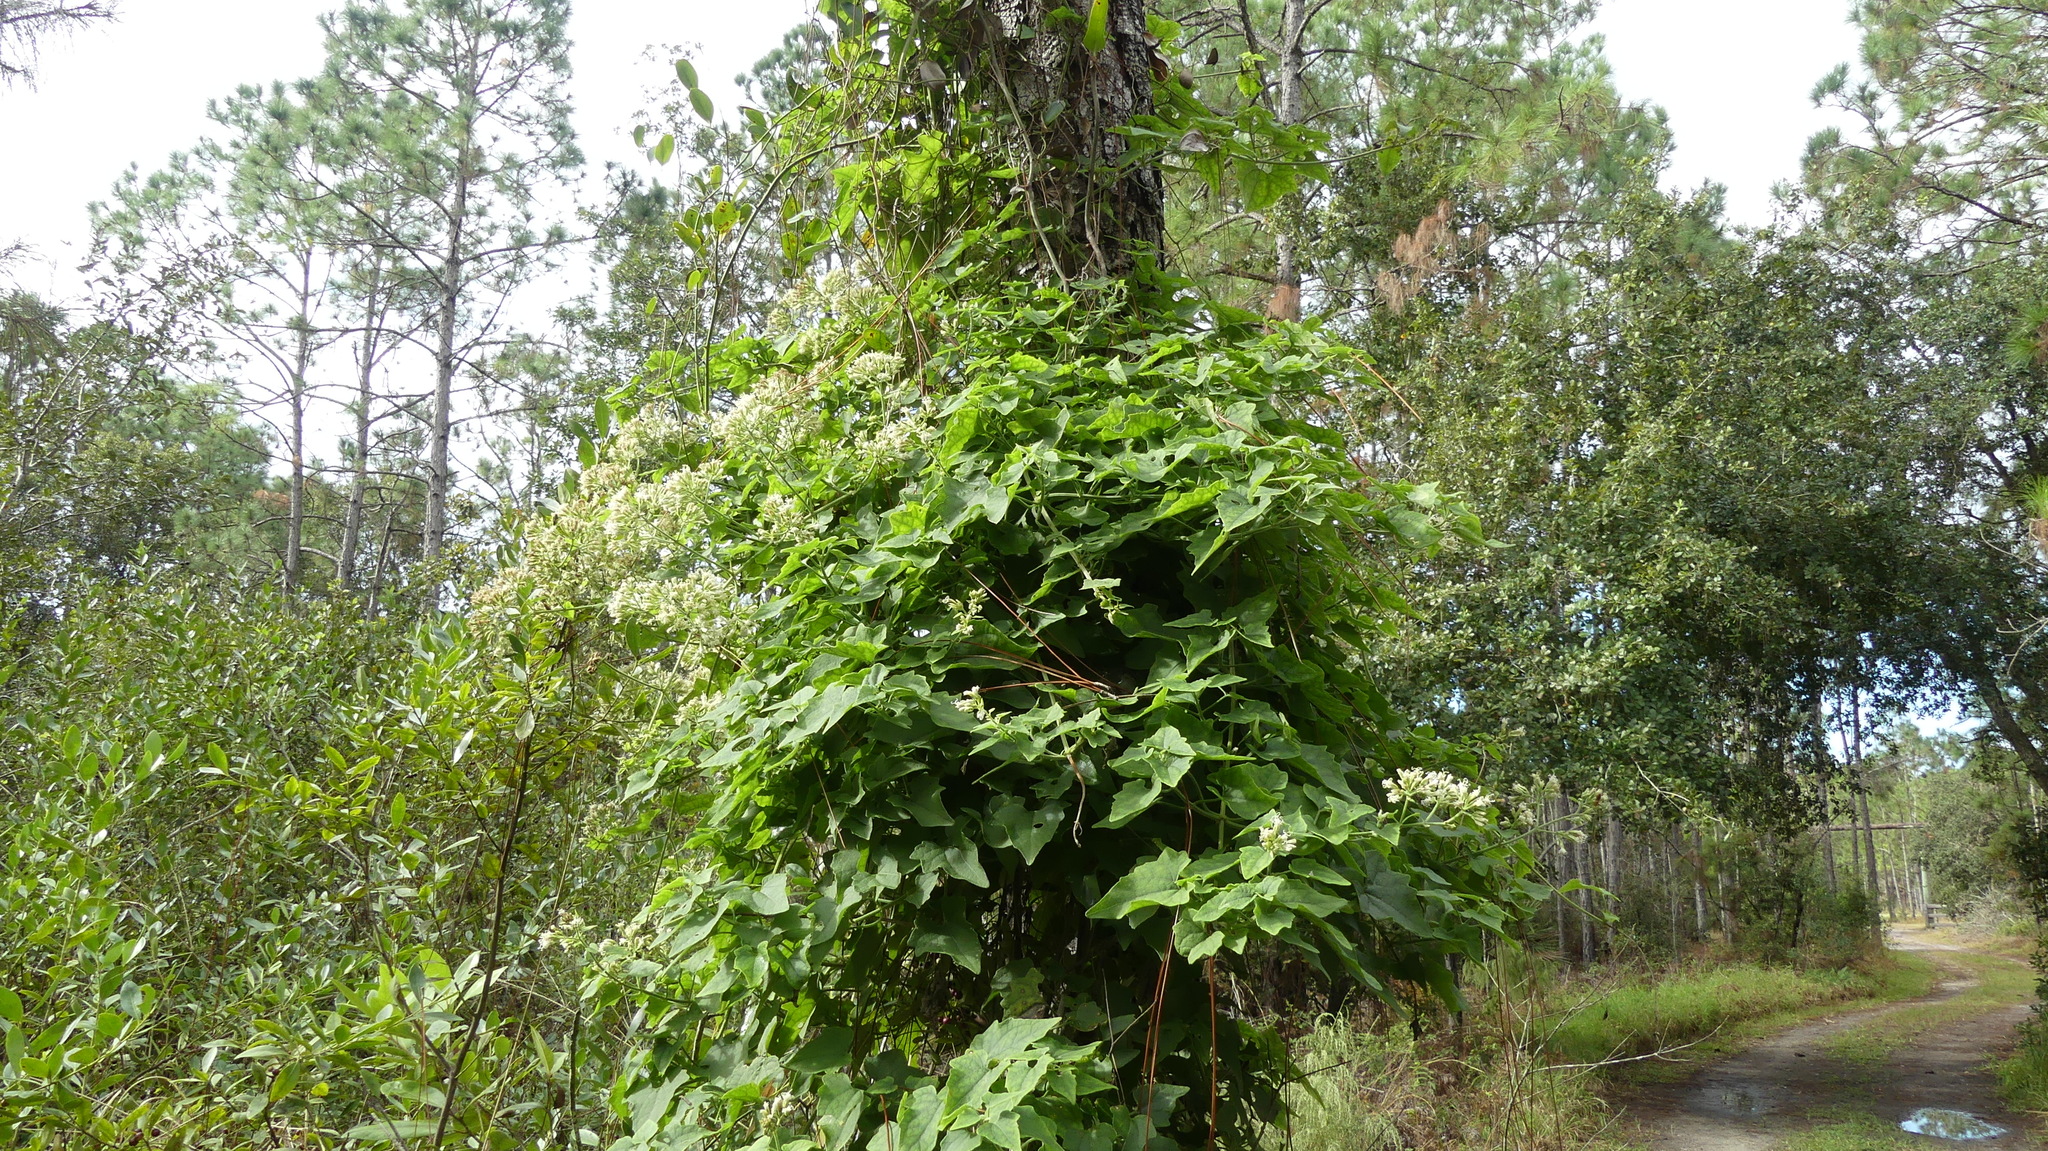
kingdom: Plantae
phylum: Tracheophyta
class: Magnoliopsida
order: Asterales
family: Asteraceae
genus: Mikania
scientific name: Mikania scandens
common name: Climbing hempvine
